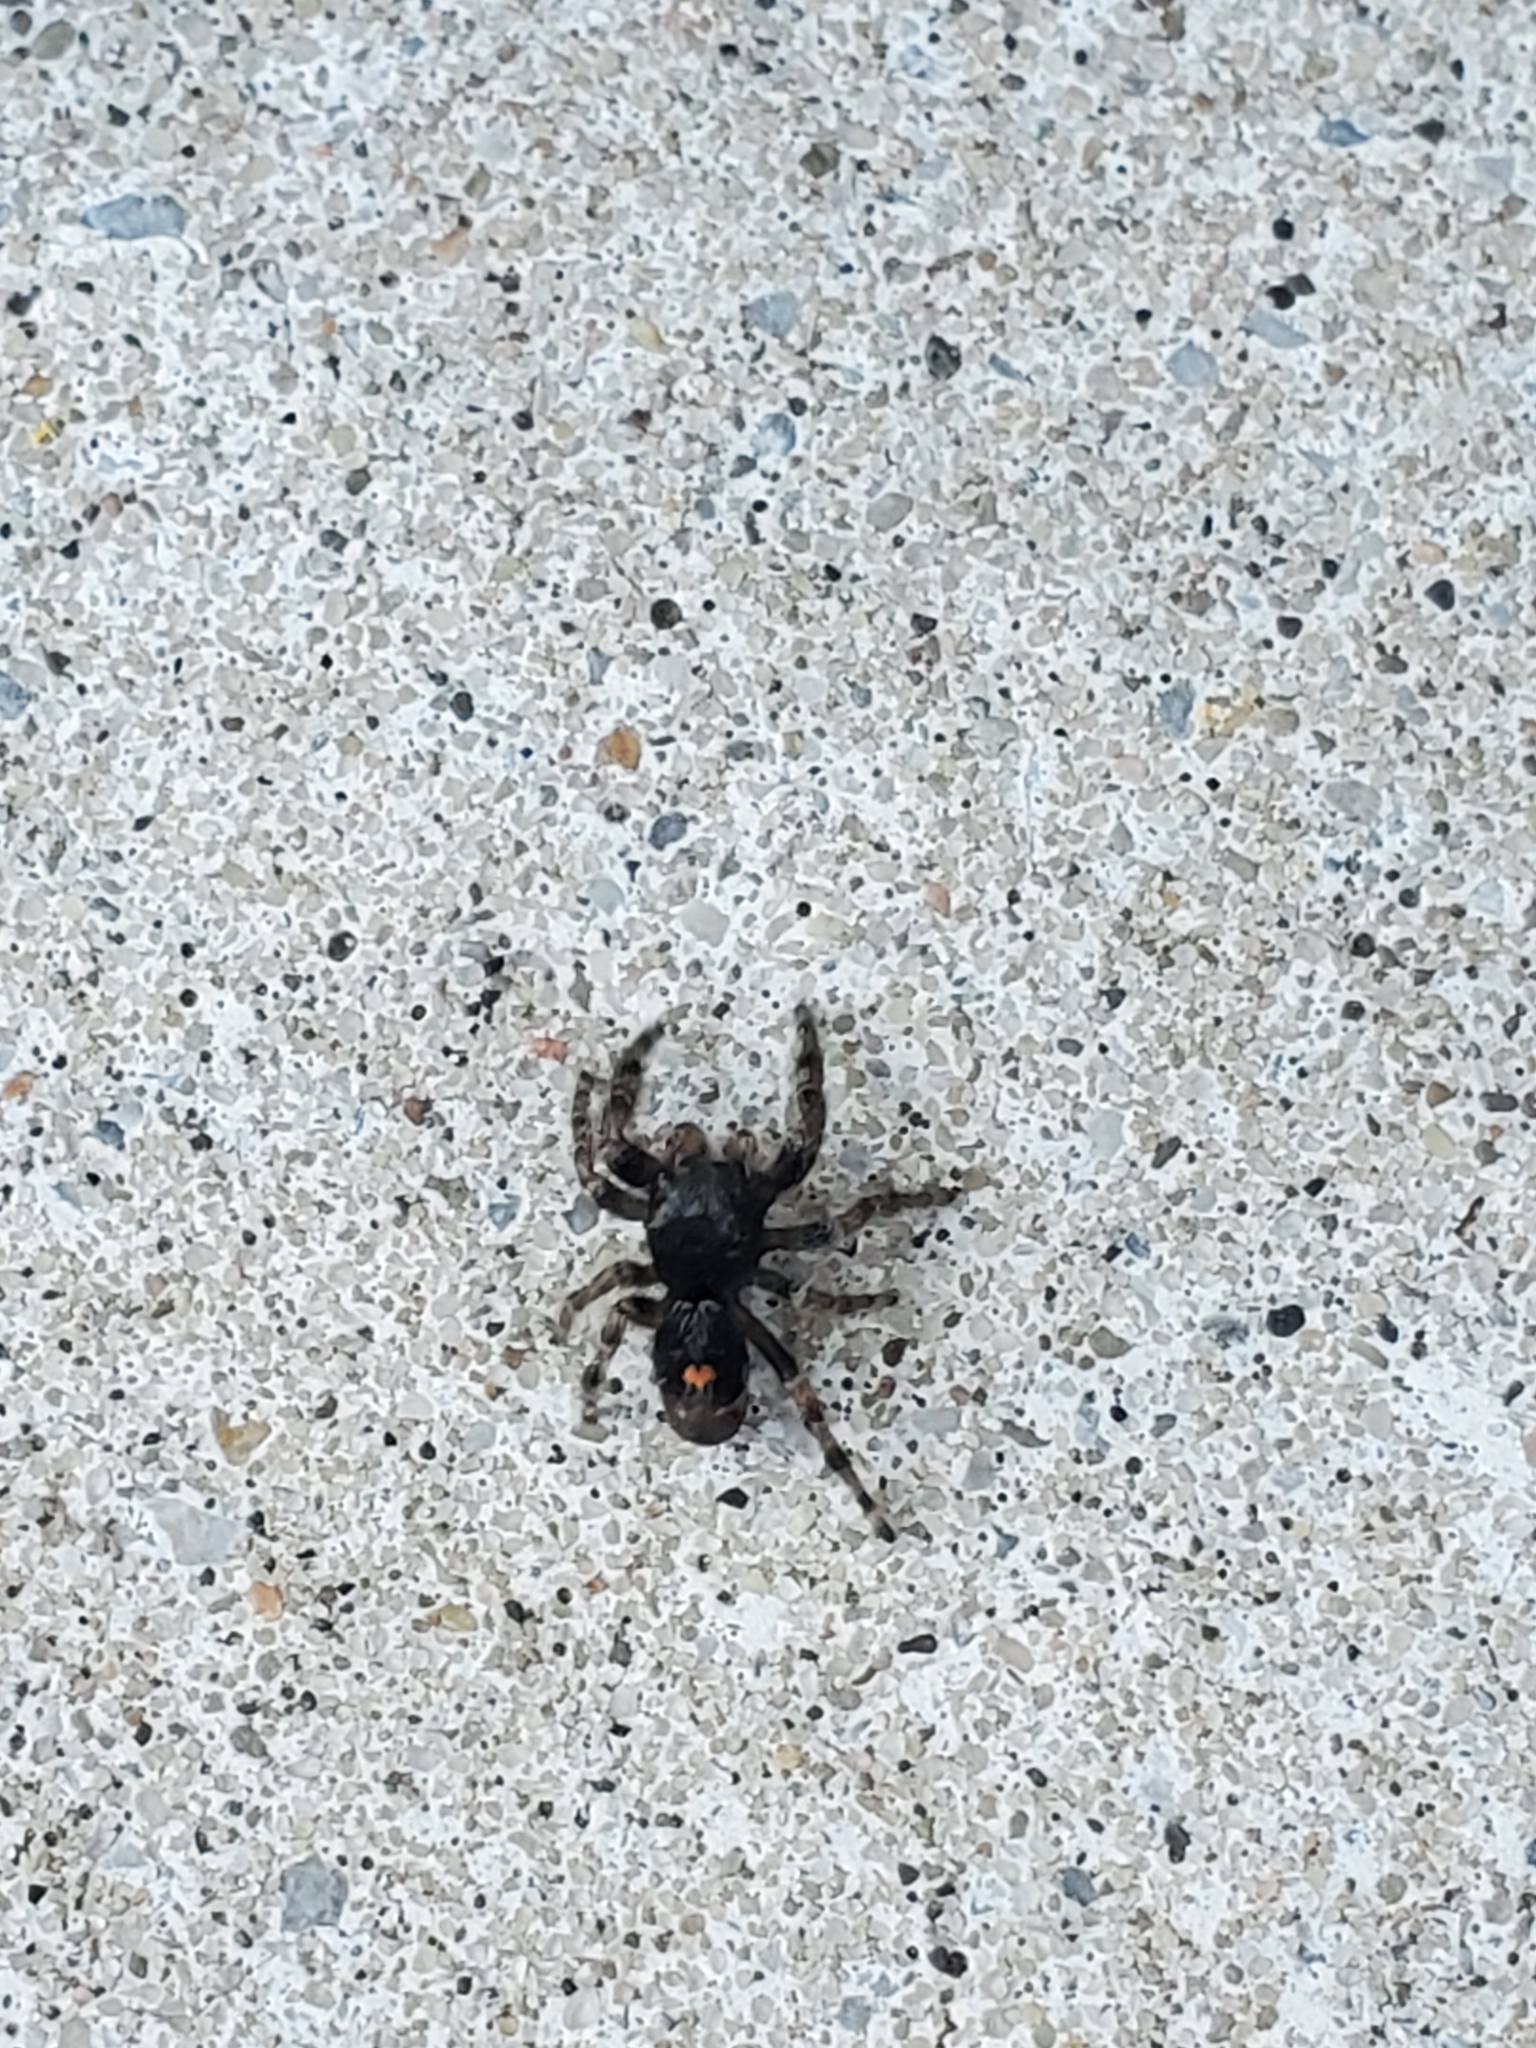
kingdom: Animalia
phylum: Arthropoda
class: Arachnida
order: Araneae
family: Salticidae
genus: Phidippus
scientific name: Phidippus audax
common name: Bold jumper
